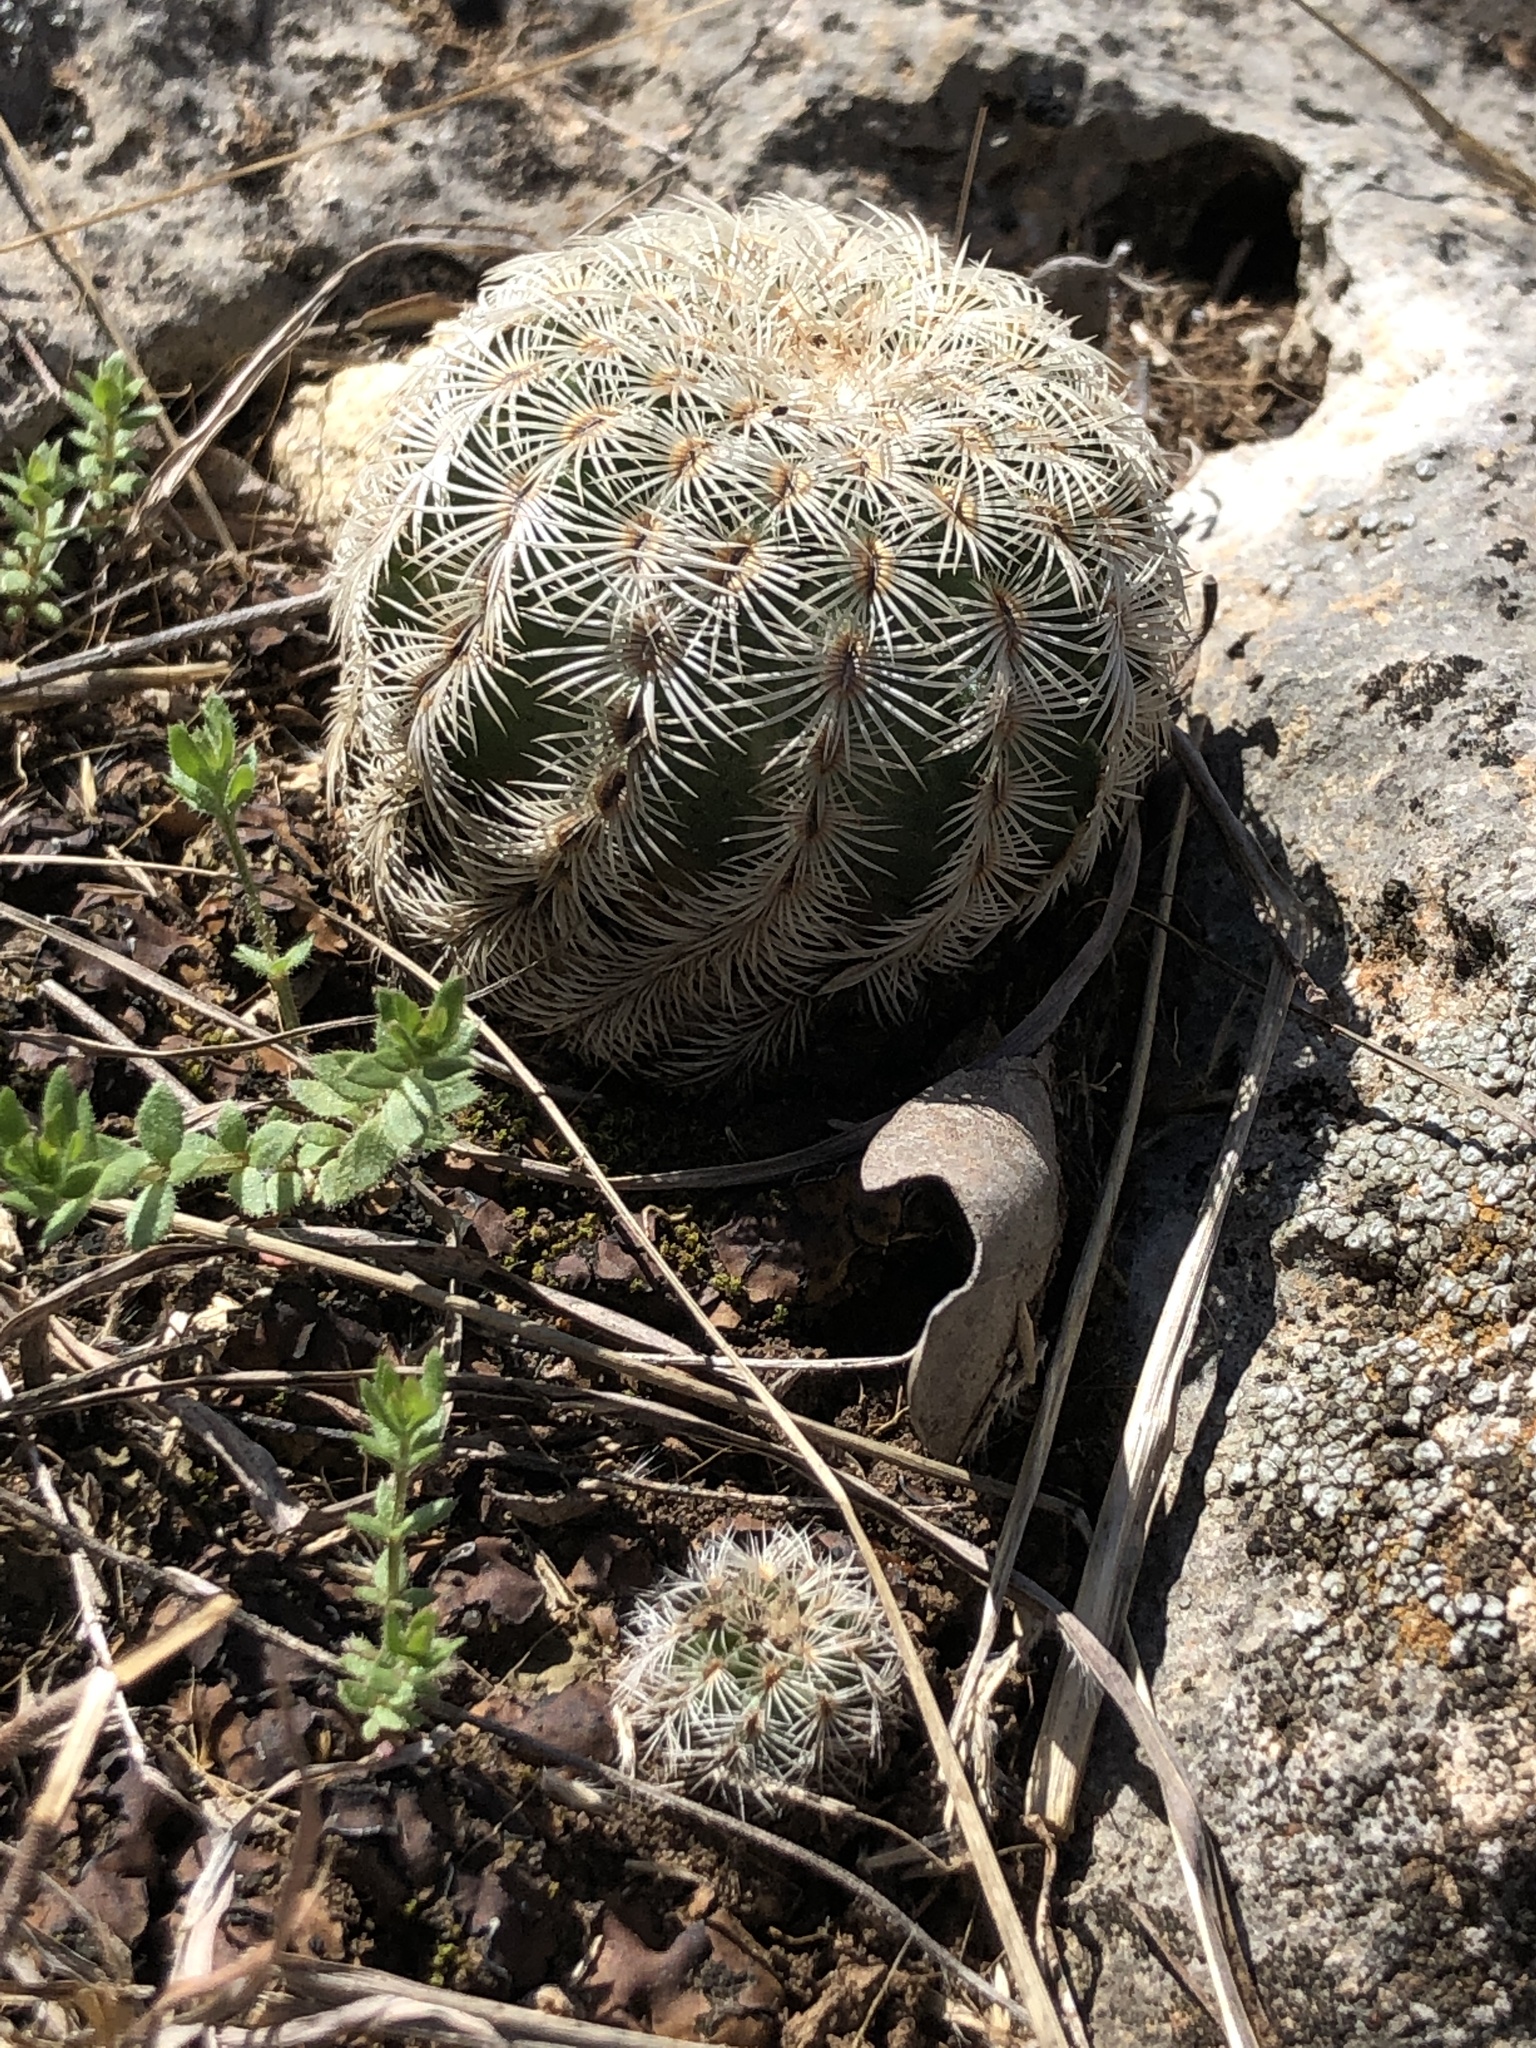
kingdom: Plantae
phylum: Tracheophyta
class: Magnoliopsida
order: Caryophyllales
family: Cactaceae
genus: Echinocereus
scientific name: Echinocereus reichenbachii
